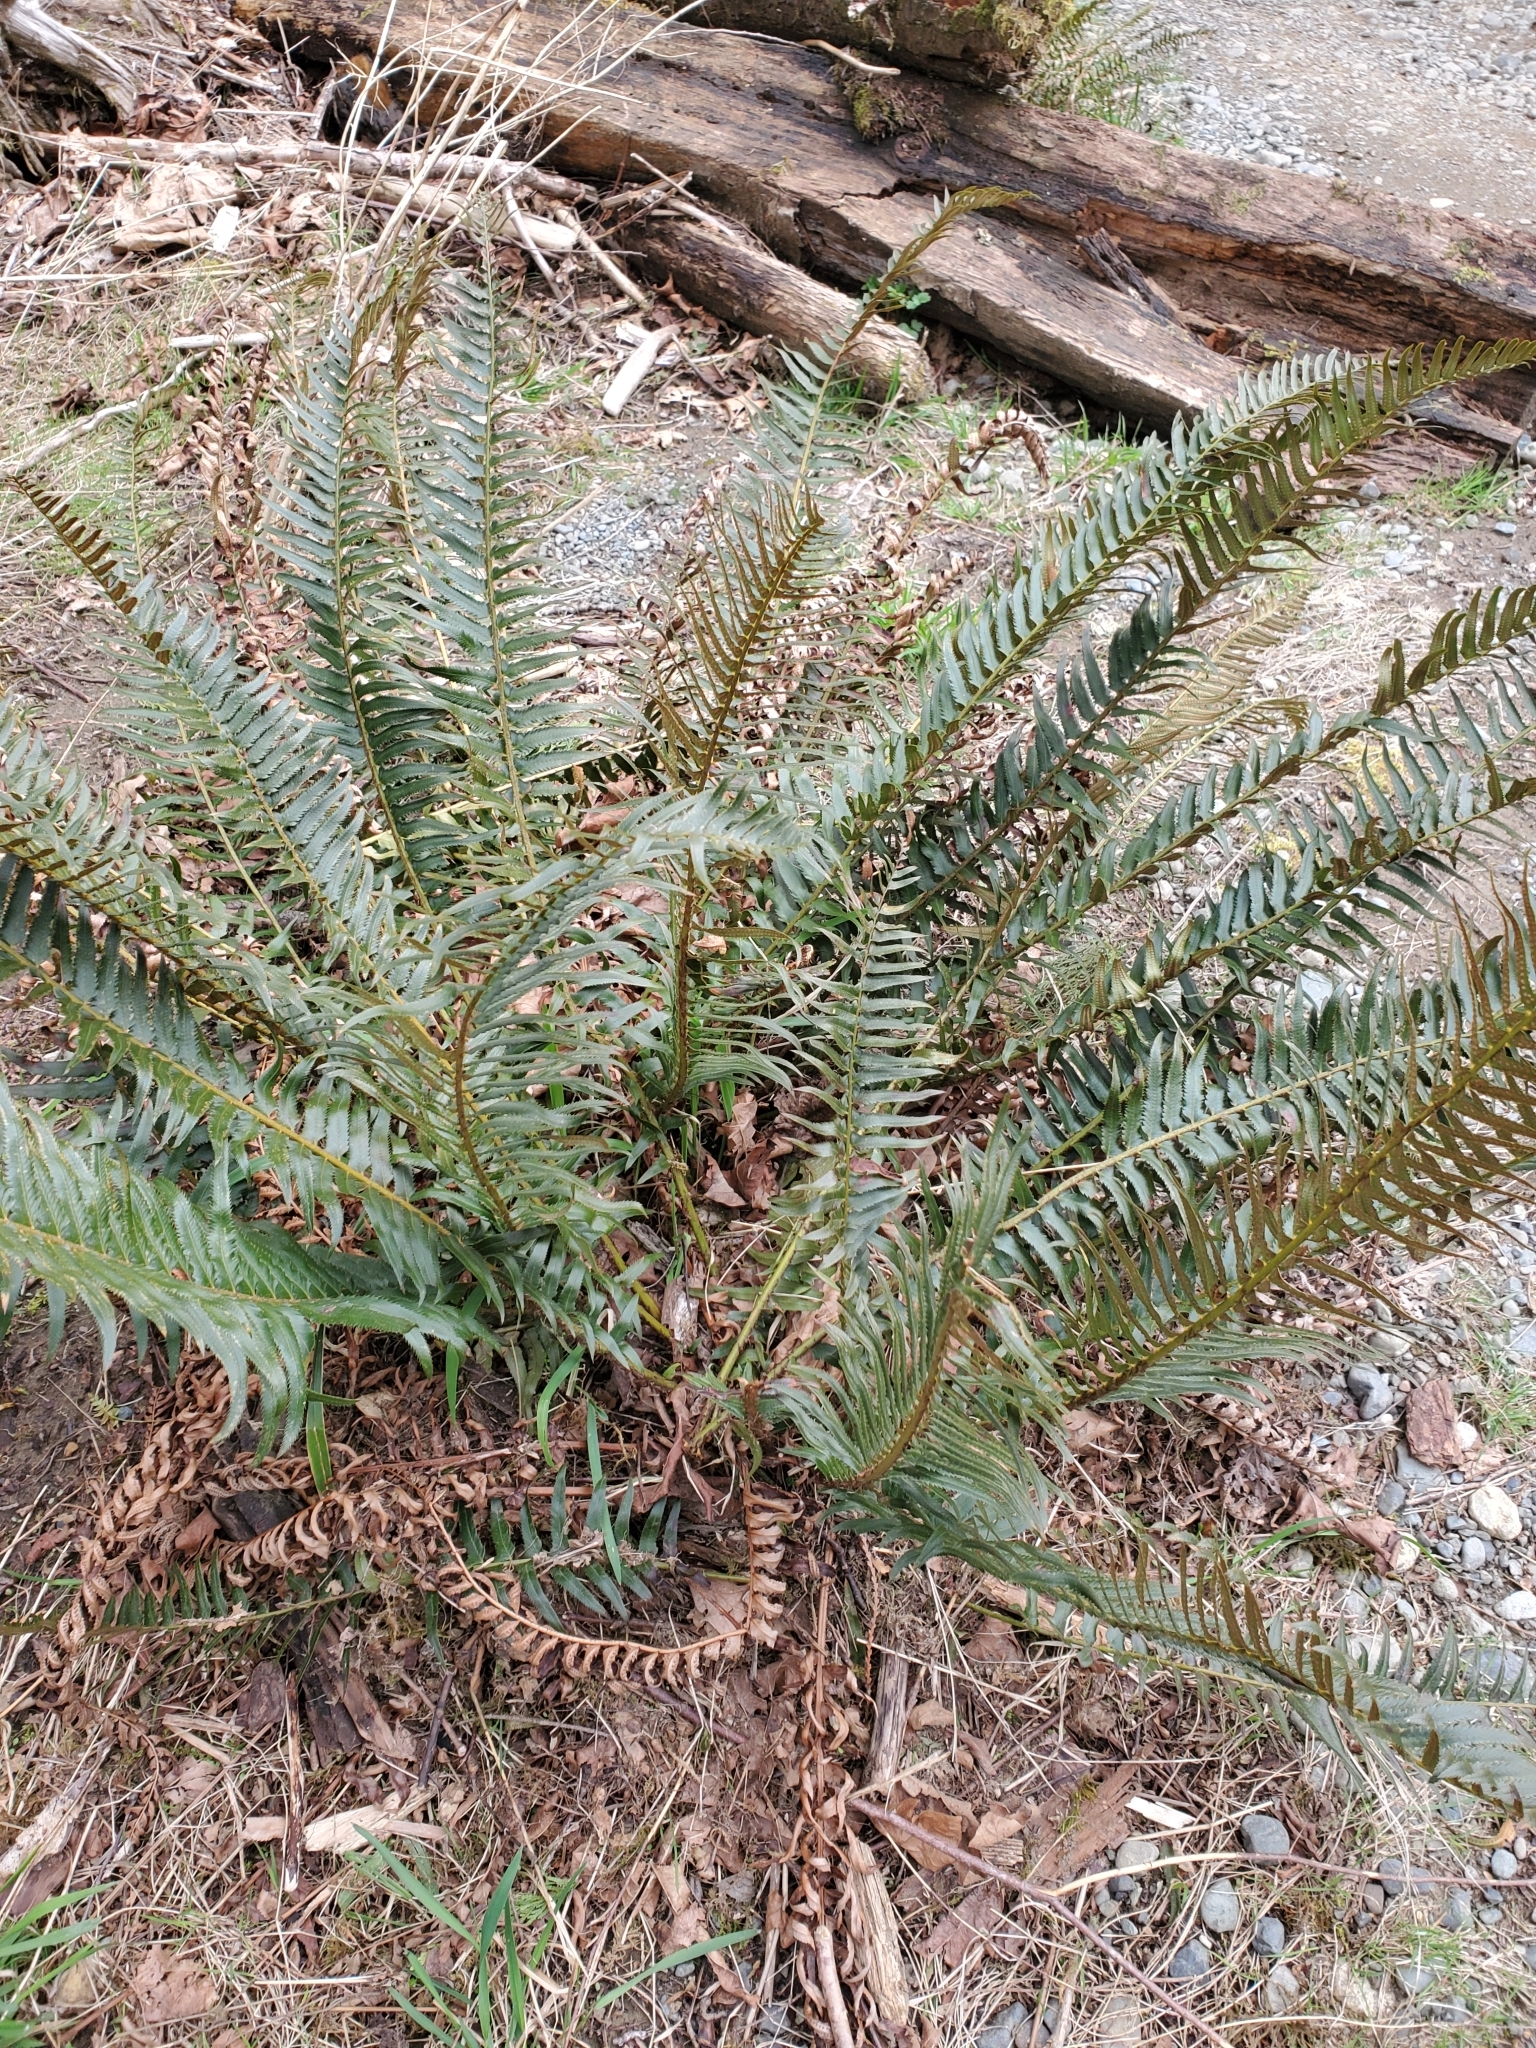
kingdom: Plantae
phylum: Tracheophyta
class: Polypodiopsida
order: Polypodiales
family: Dryopteridaceae
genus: Polystichum
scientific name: Polystichum munitum
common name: Western sword-fern
